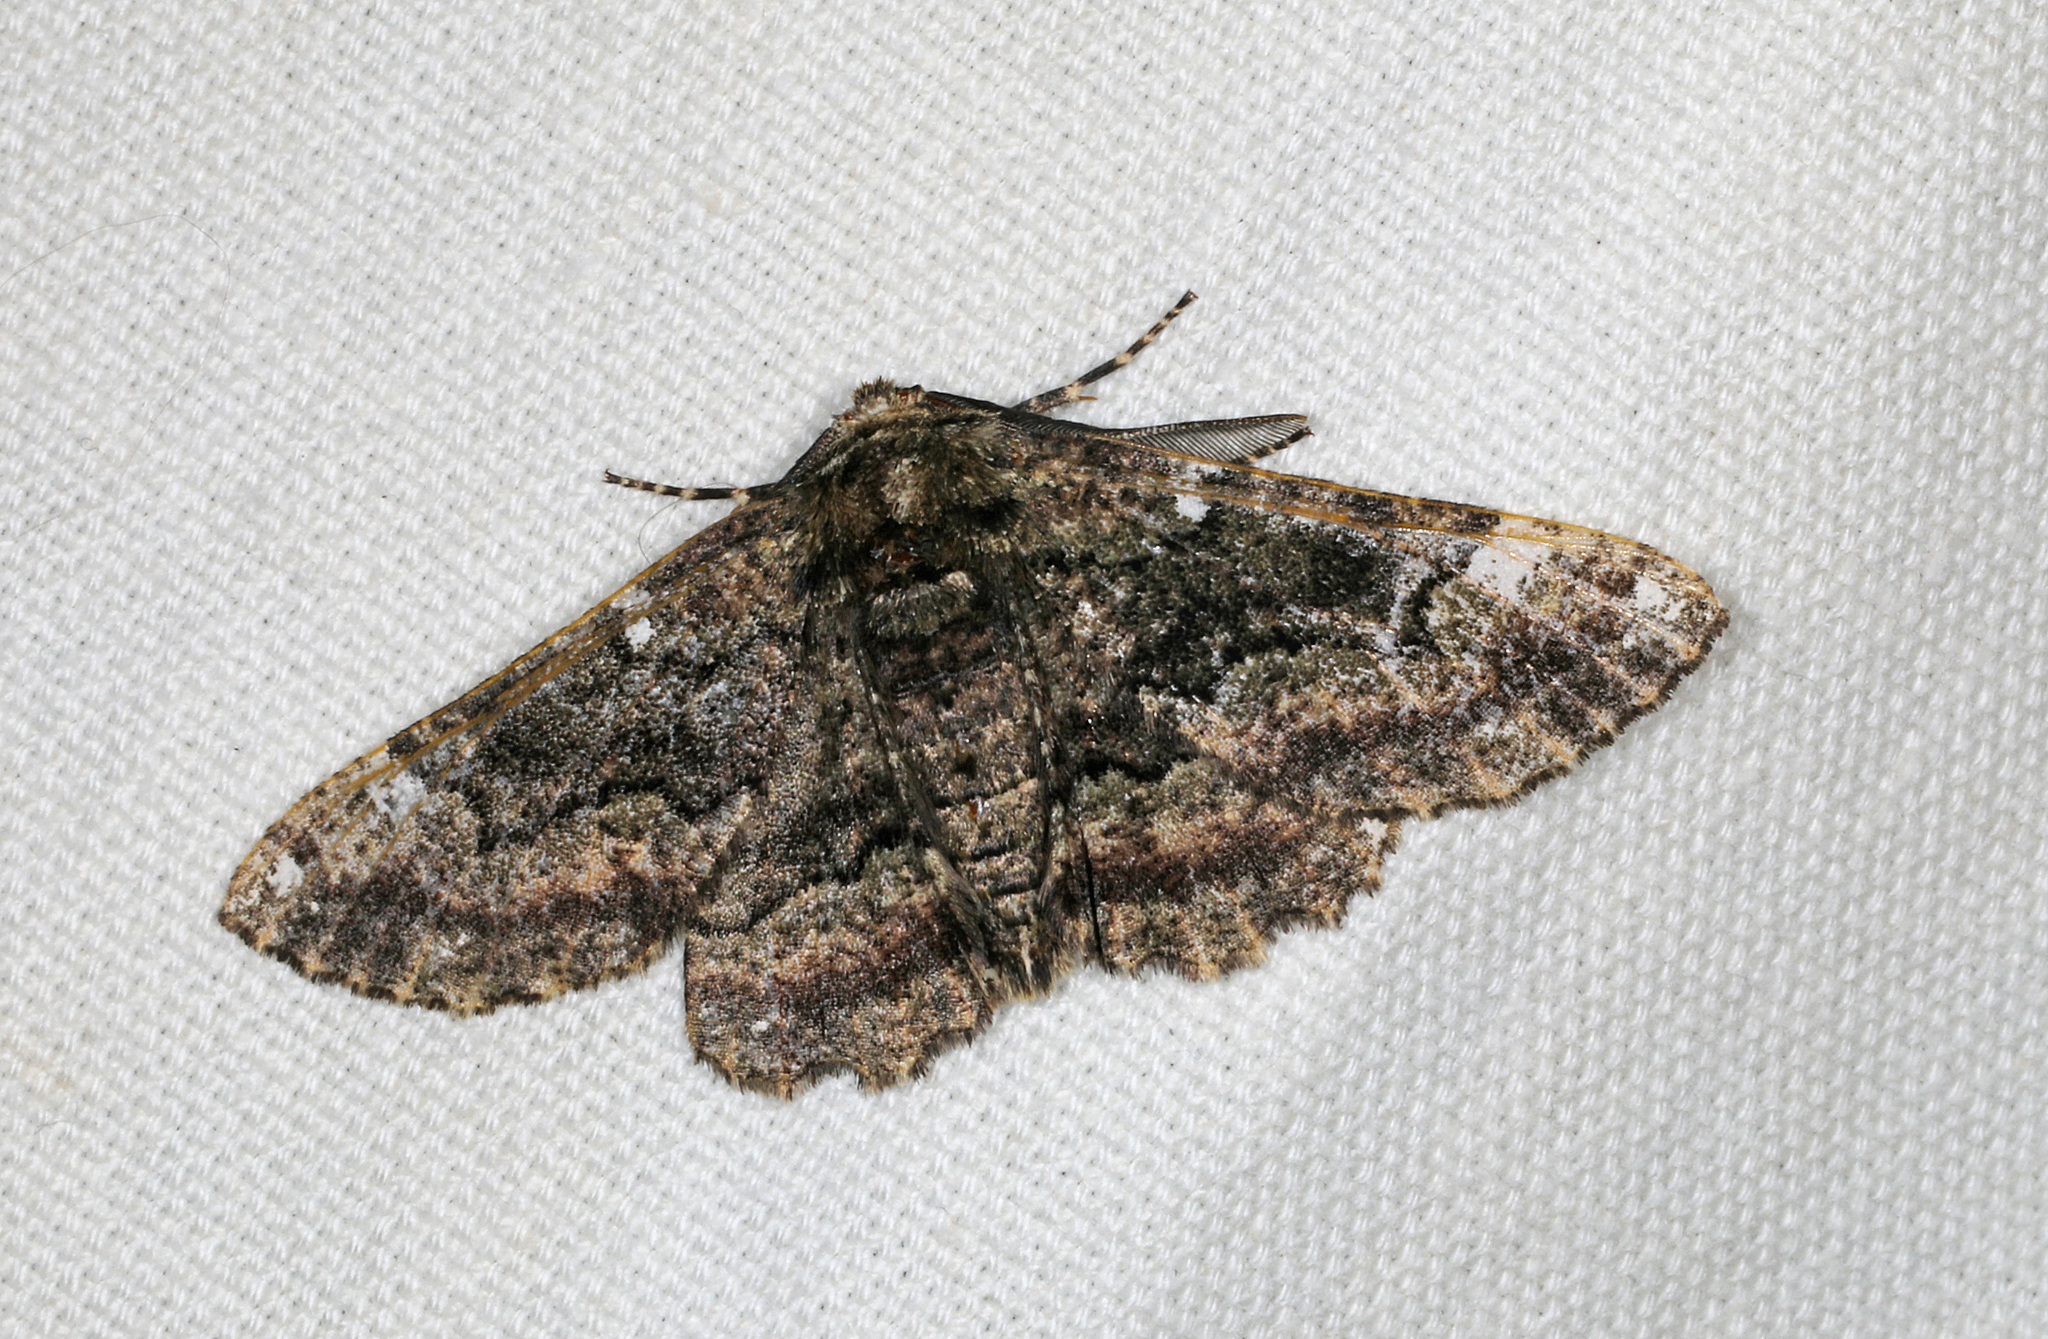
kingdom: Animalia
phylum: Arthropoda
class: Insecta
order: Lepidoptera
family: Geometridae
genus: Phaeoura
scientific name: Phaeoura quernaria
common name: Oak beauty
